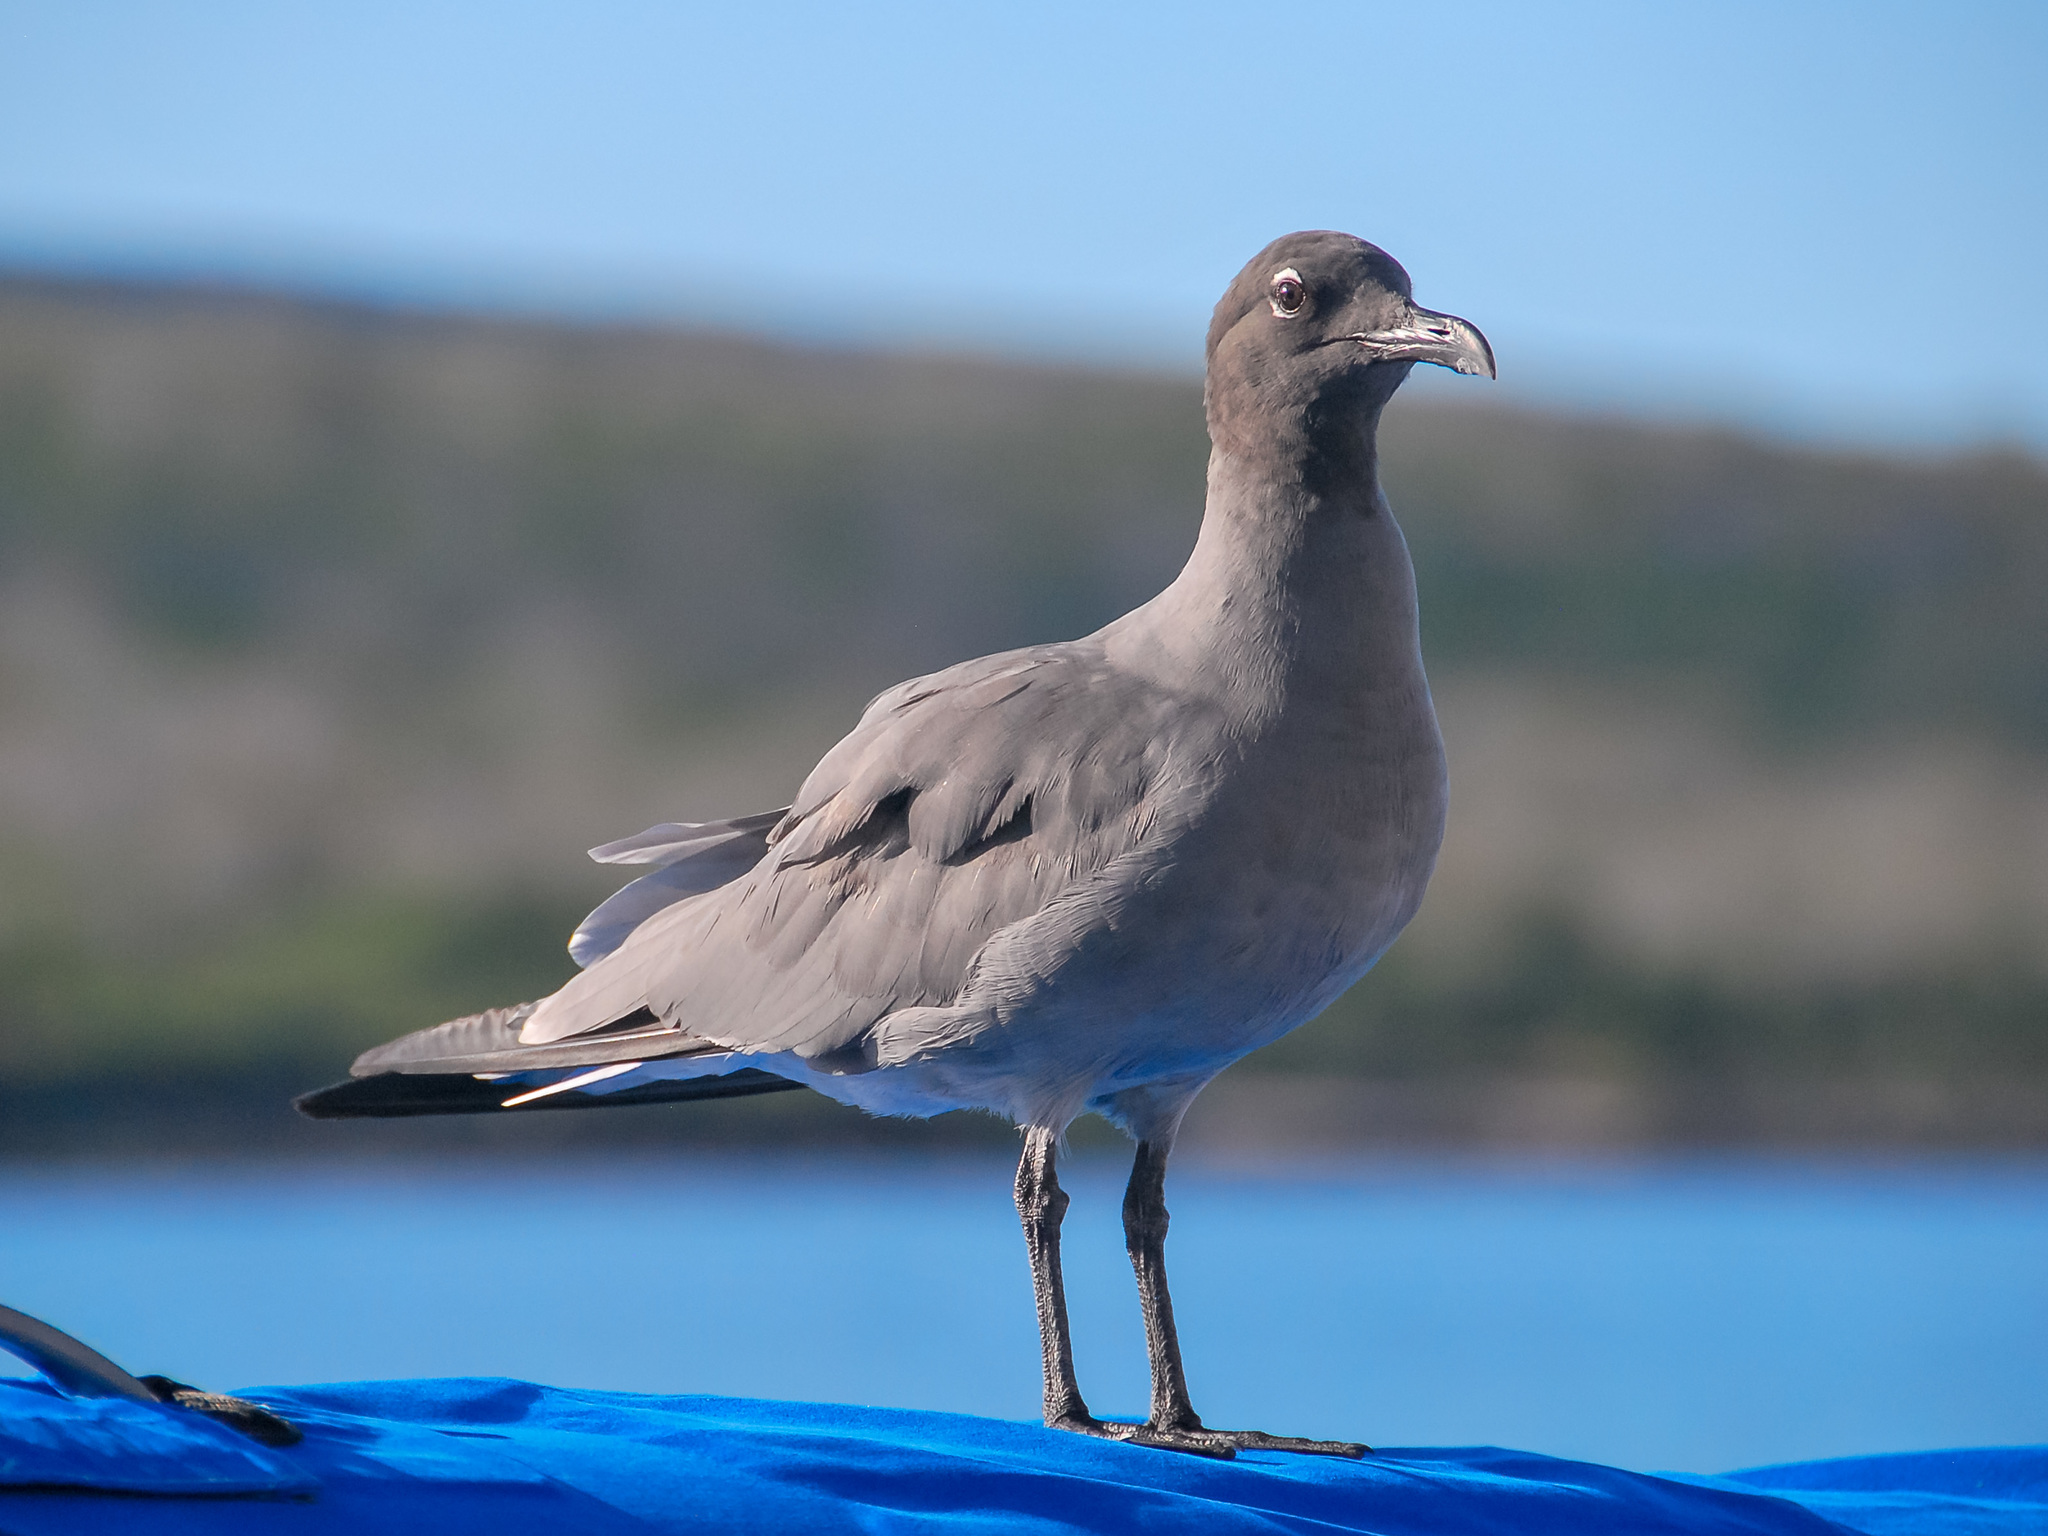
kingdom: Animalia
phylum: Chordata
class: Aves
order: Charadriiformes
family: Laridae
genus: Leucophaeus
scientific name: Leucophaeus fuliginosus
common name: Lava gull
